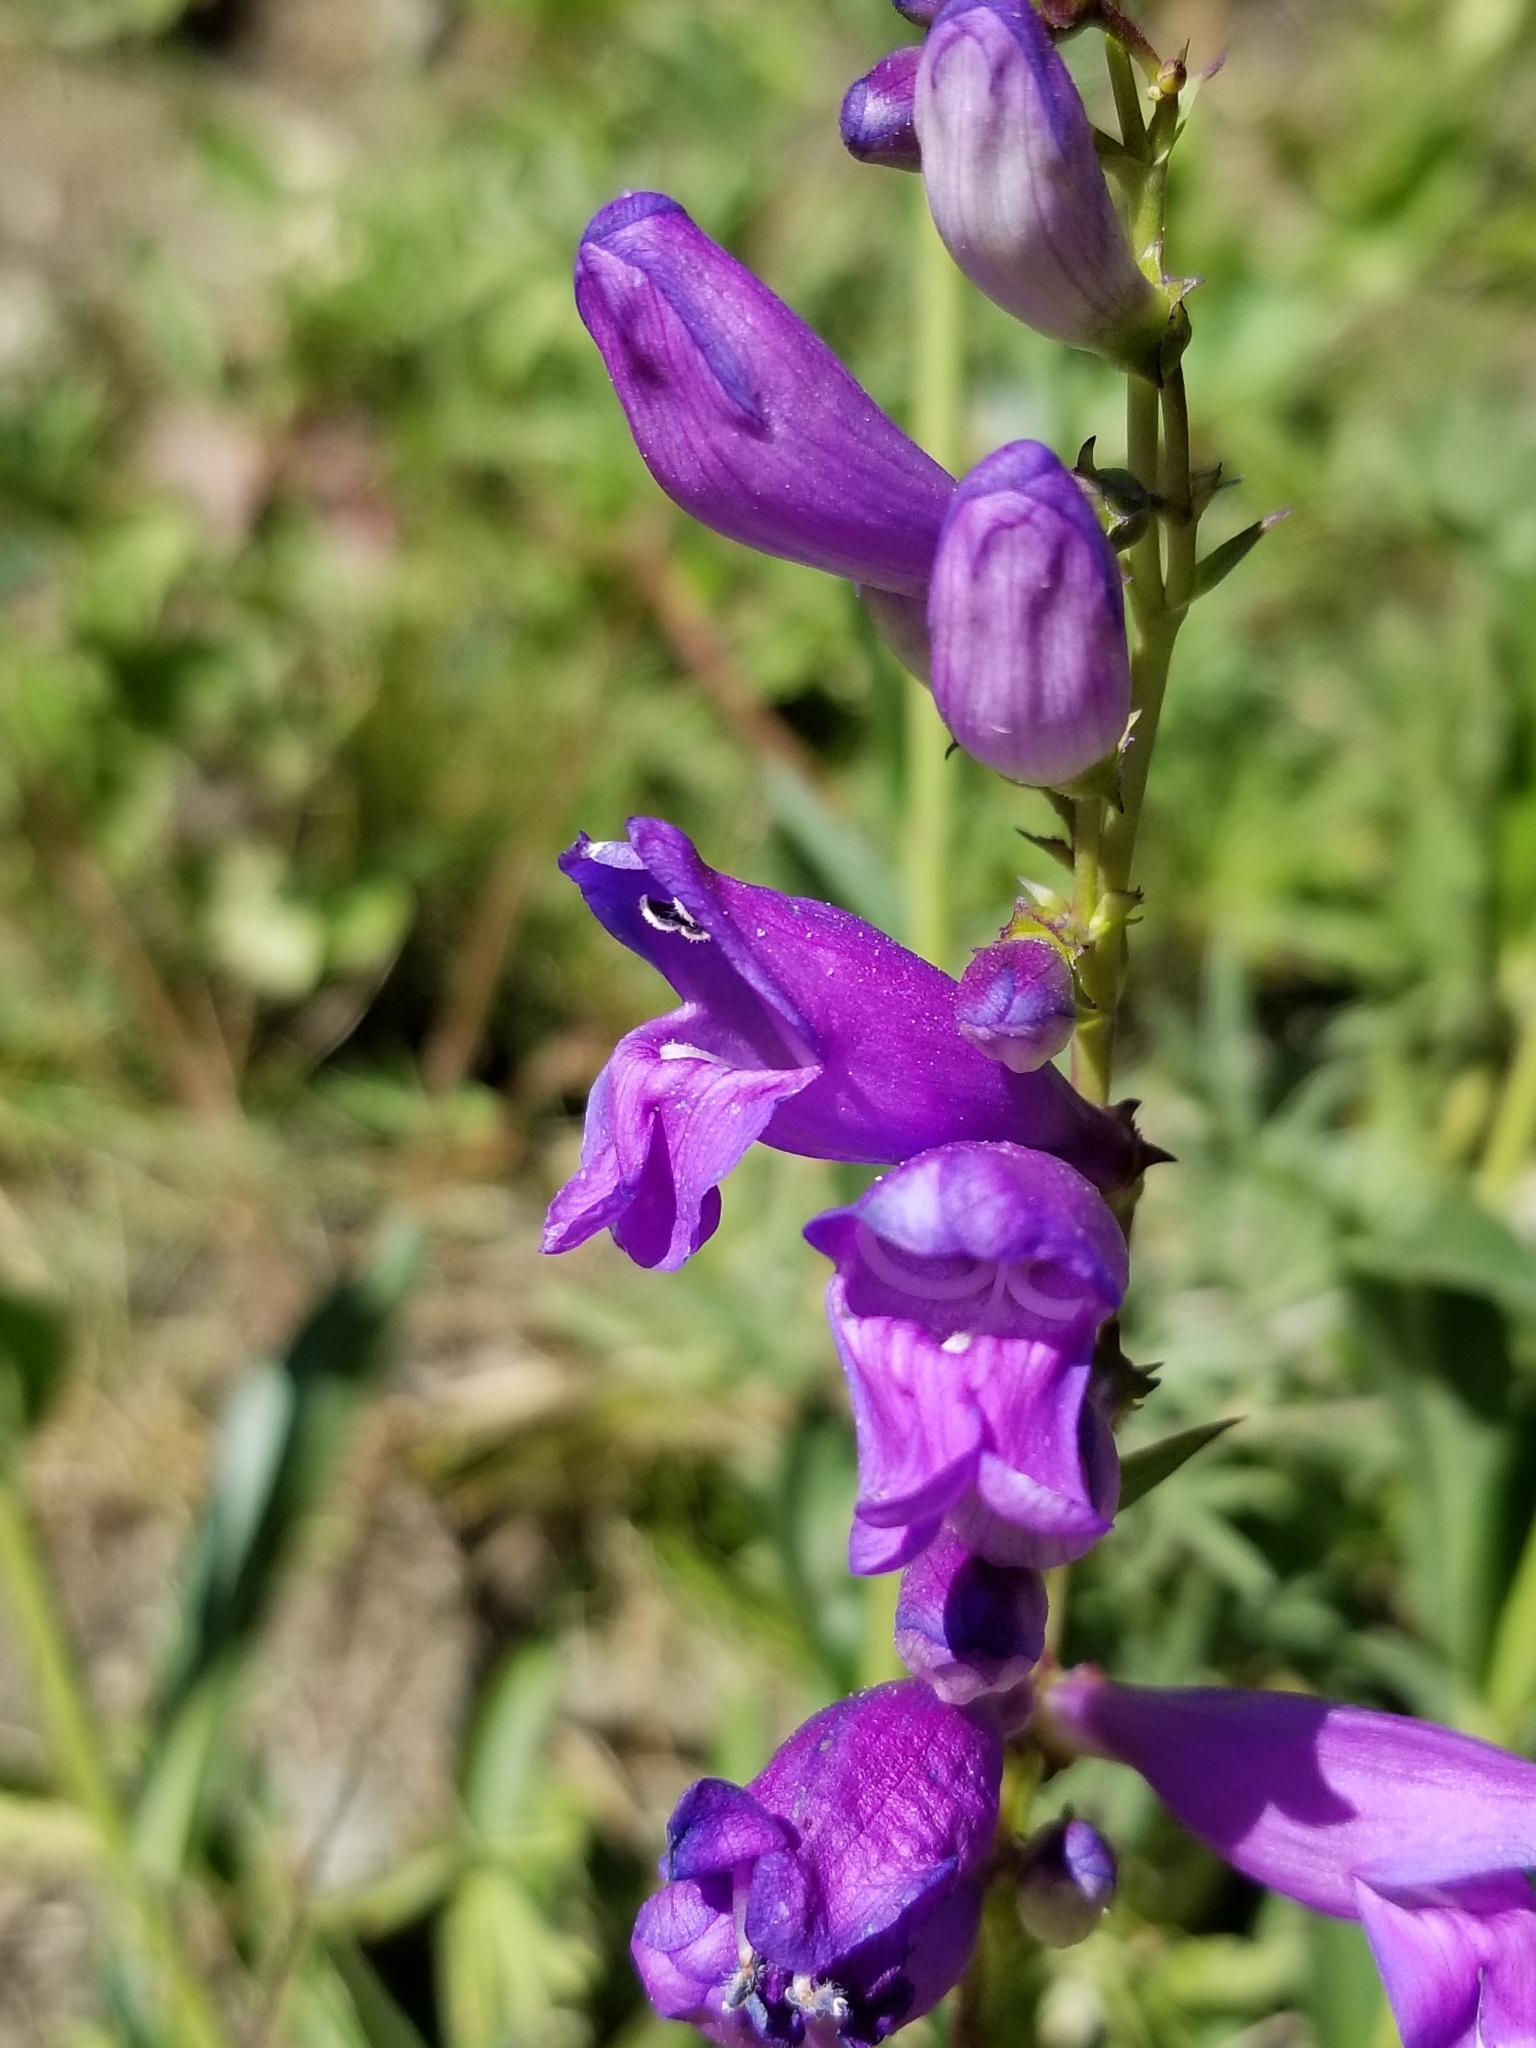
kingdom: Plantae
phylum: Tracheophyta
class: Magnoliopsida
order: Lamiales
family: Plantaginaceae
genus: Penstemon
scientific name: Penstemon strictus
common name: Rocky mountain penstemon
